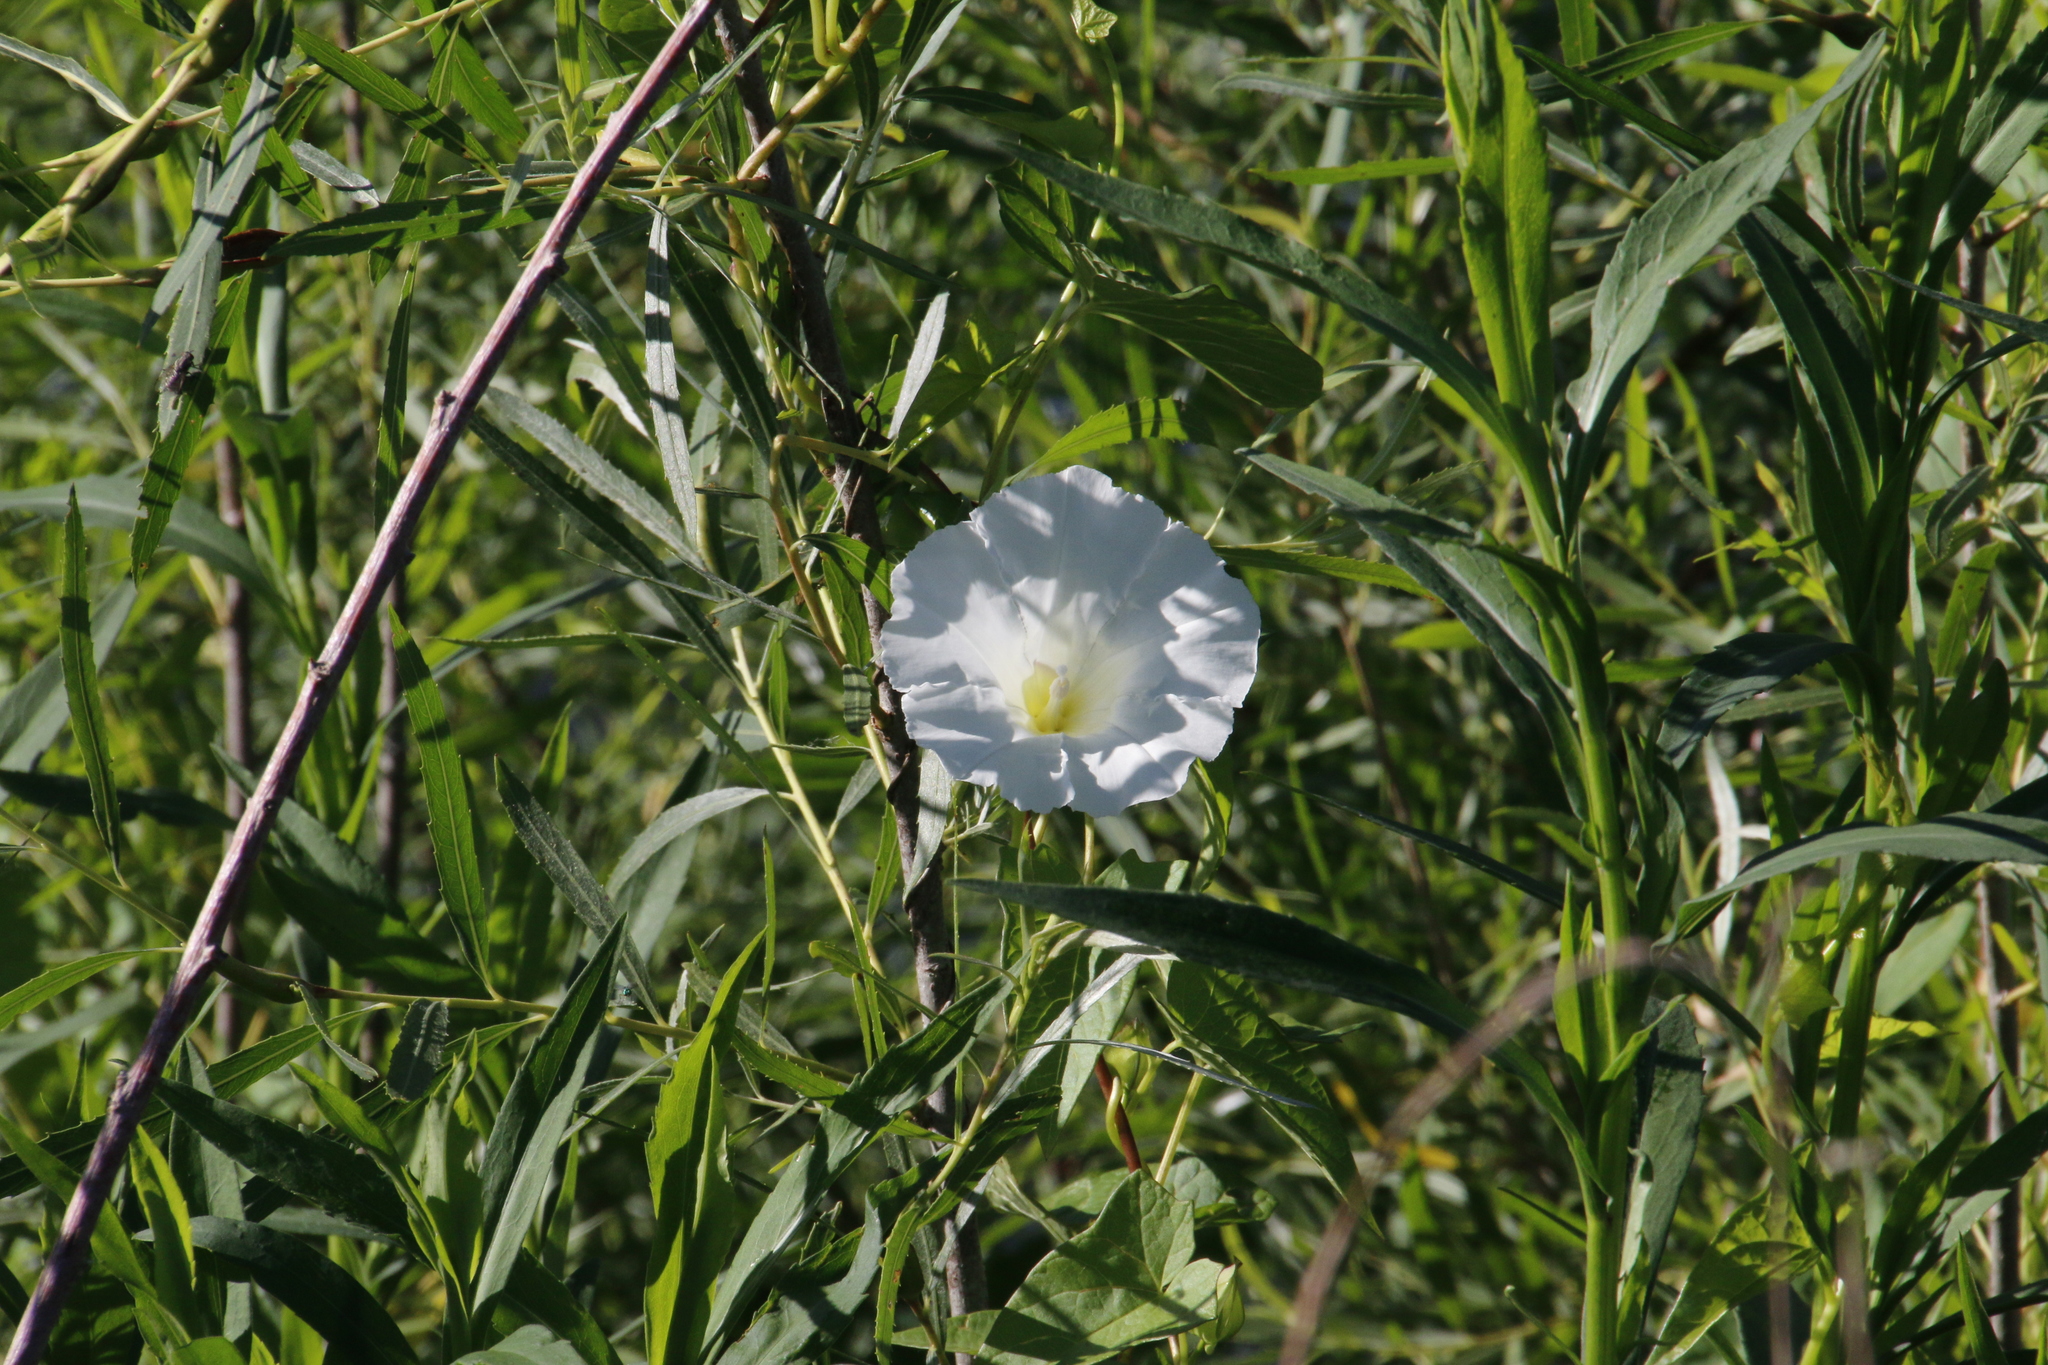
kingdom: Plantae
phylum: Tracheophyta
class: Magnoliopsida
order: Solanales
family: Convolvulaceae
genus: Calystegia
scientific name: Calystegia sepium
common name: Hedge bindweed
